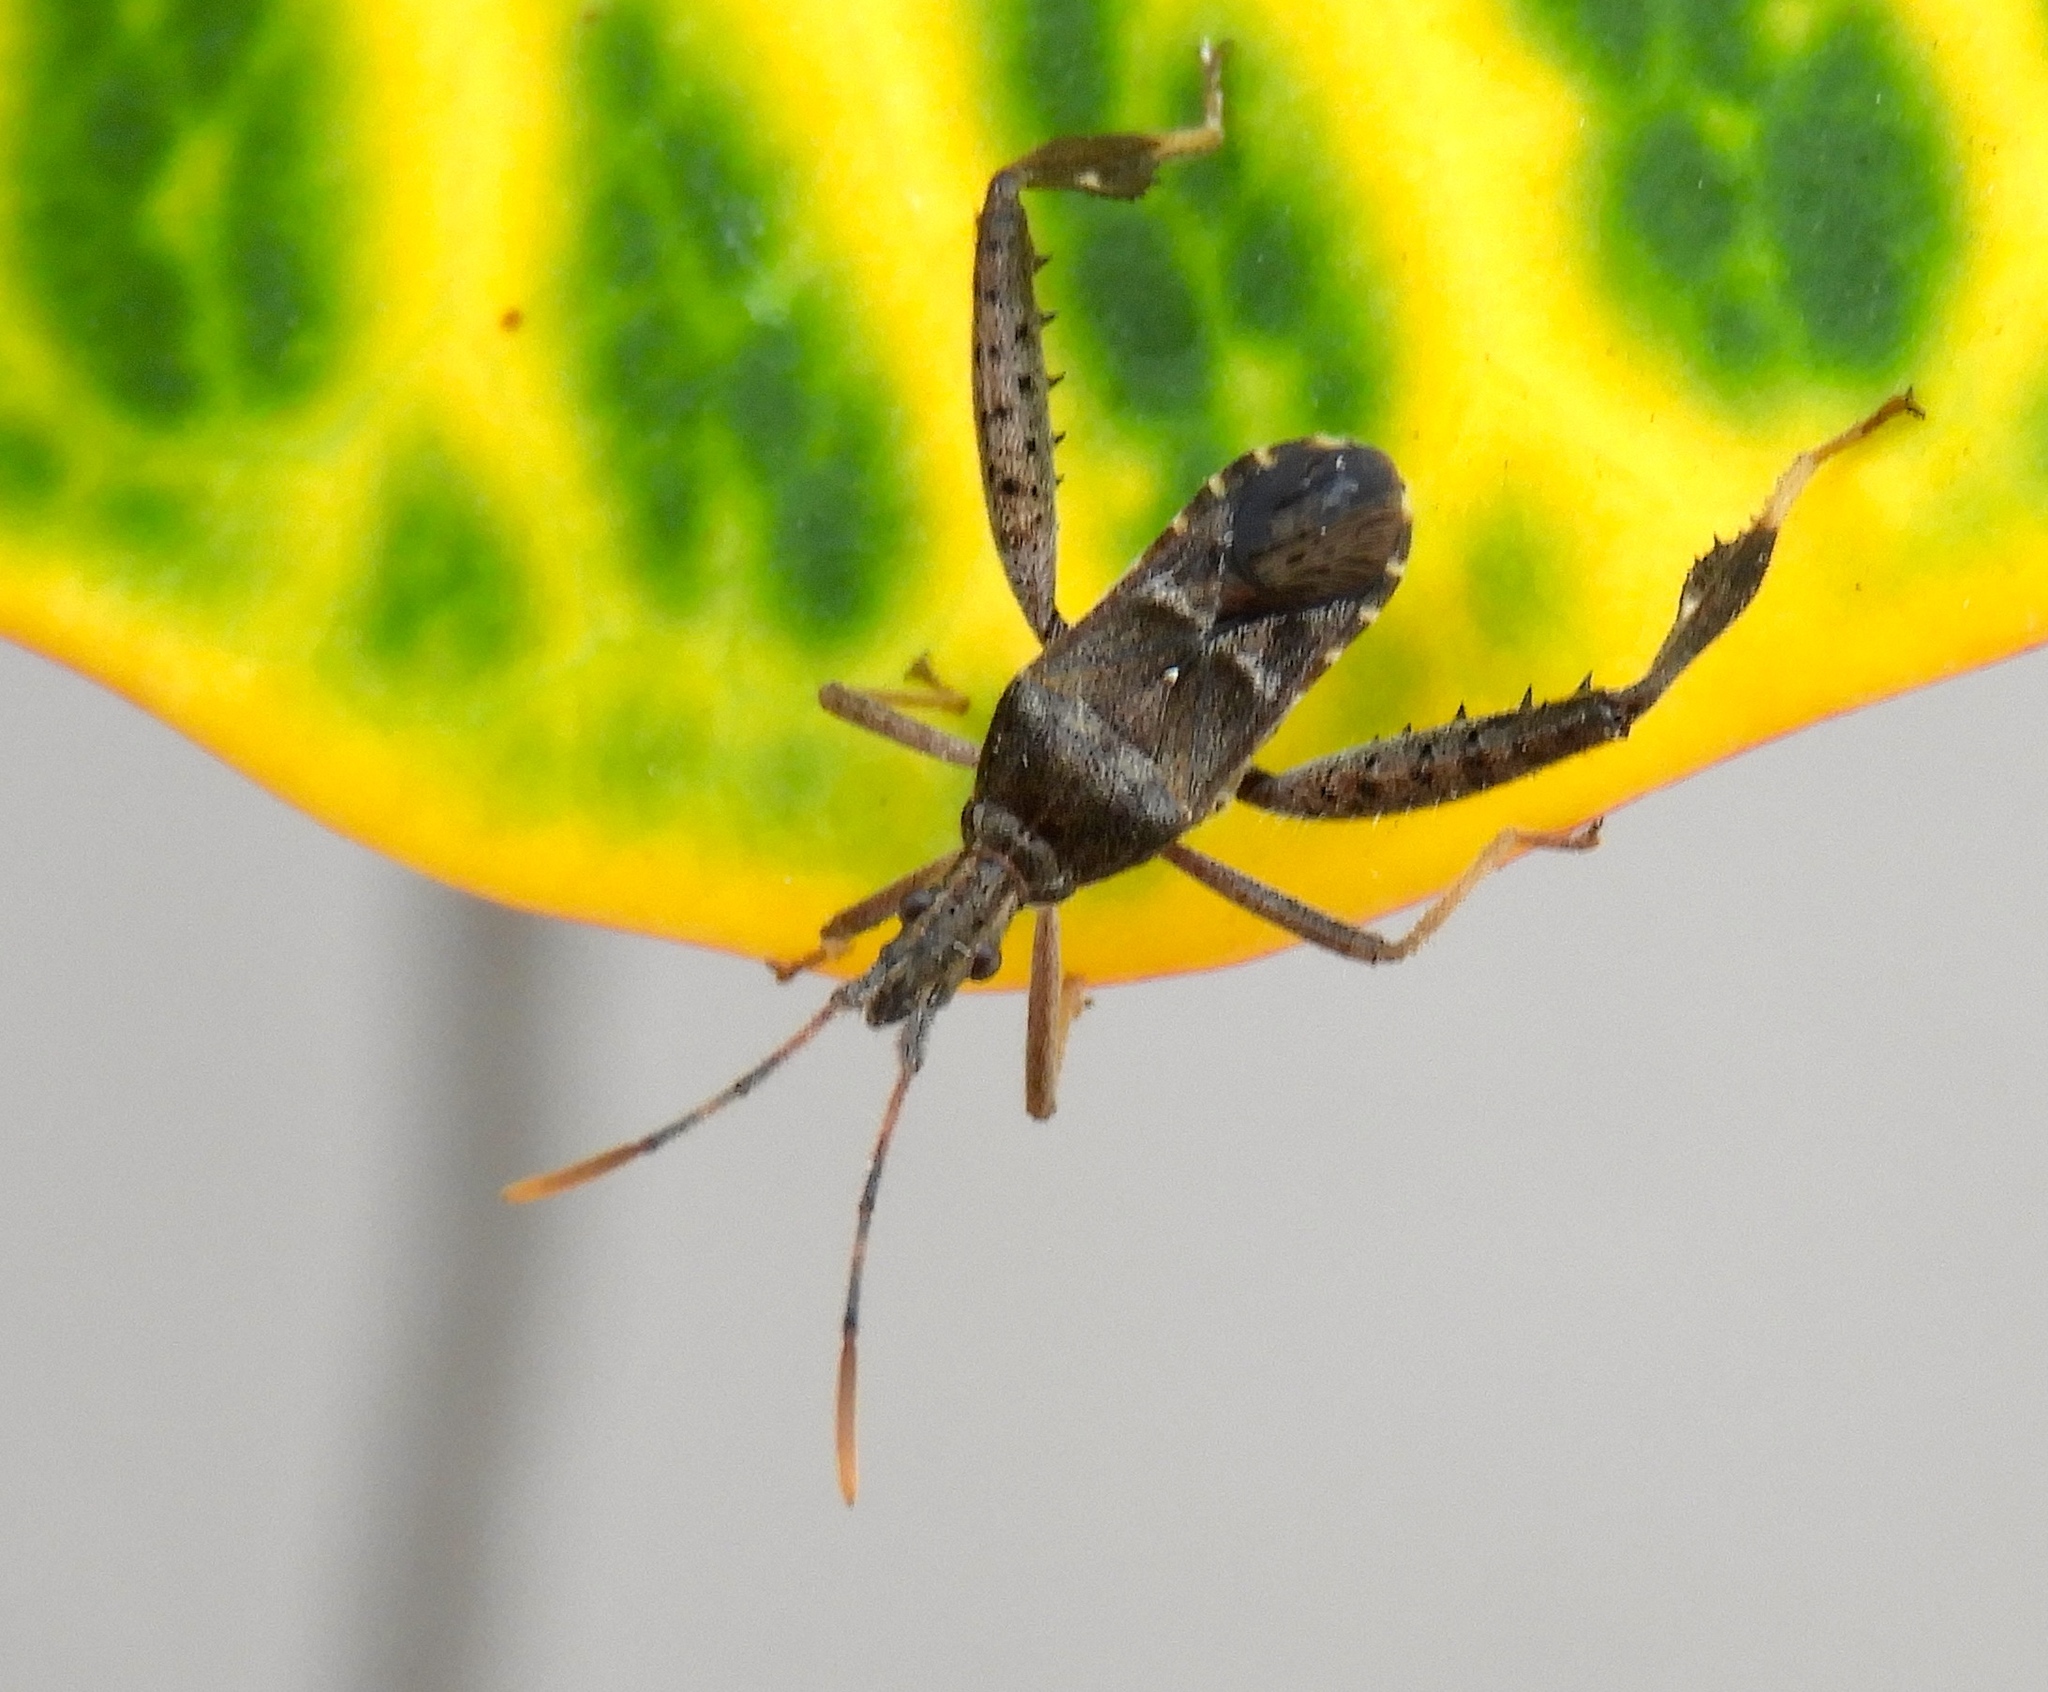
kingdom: Animalia
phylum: Arthropoda
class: Insecta
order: Hemiptera
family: Coreidae
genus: Narnia
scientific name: Narnia
